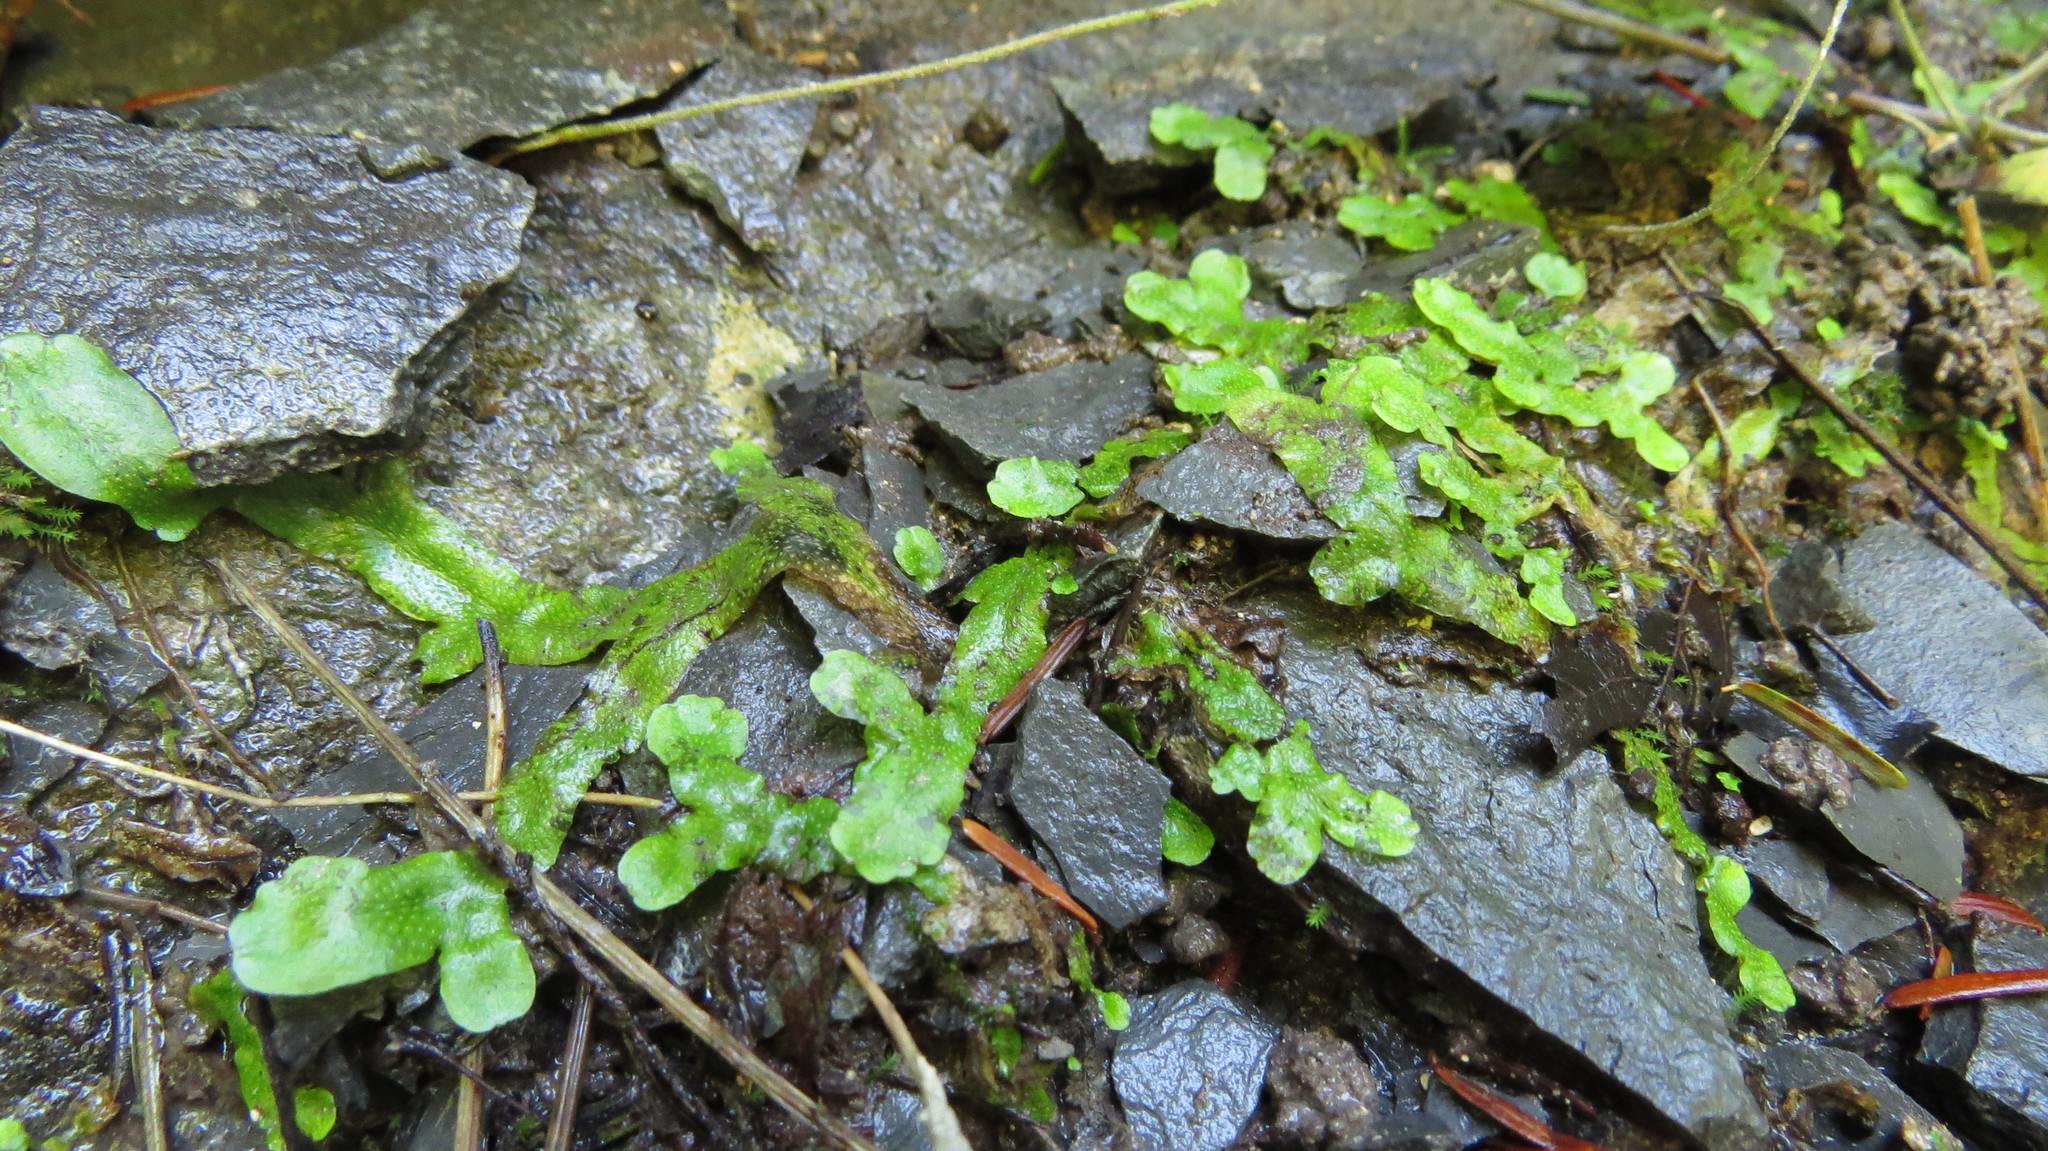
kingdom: Plantae
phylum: Marchantiophyta
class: Marchantiopsida
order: Marchantiales
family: Conocephalaceae
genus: Conocephalum
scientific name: Conocephalum salebrosum
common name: Cat-tongue liverwort
